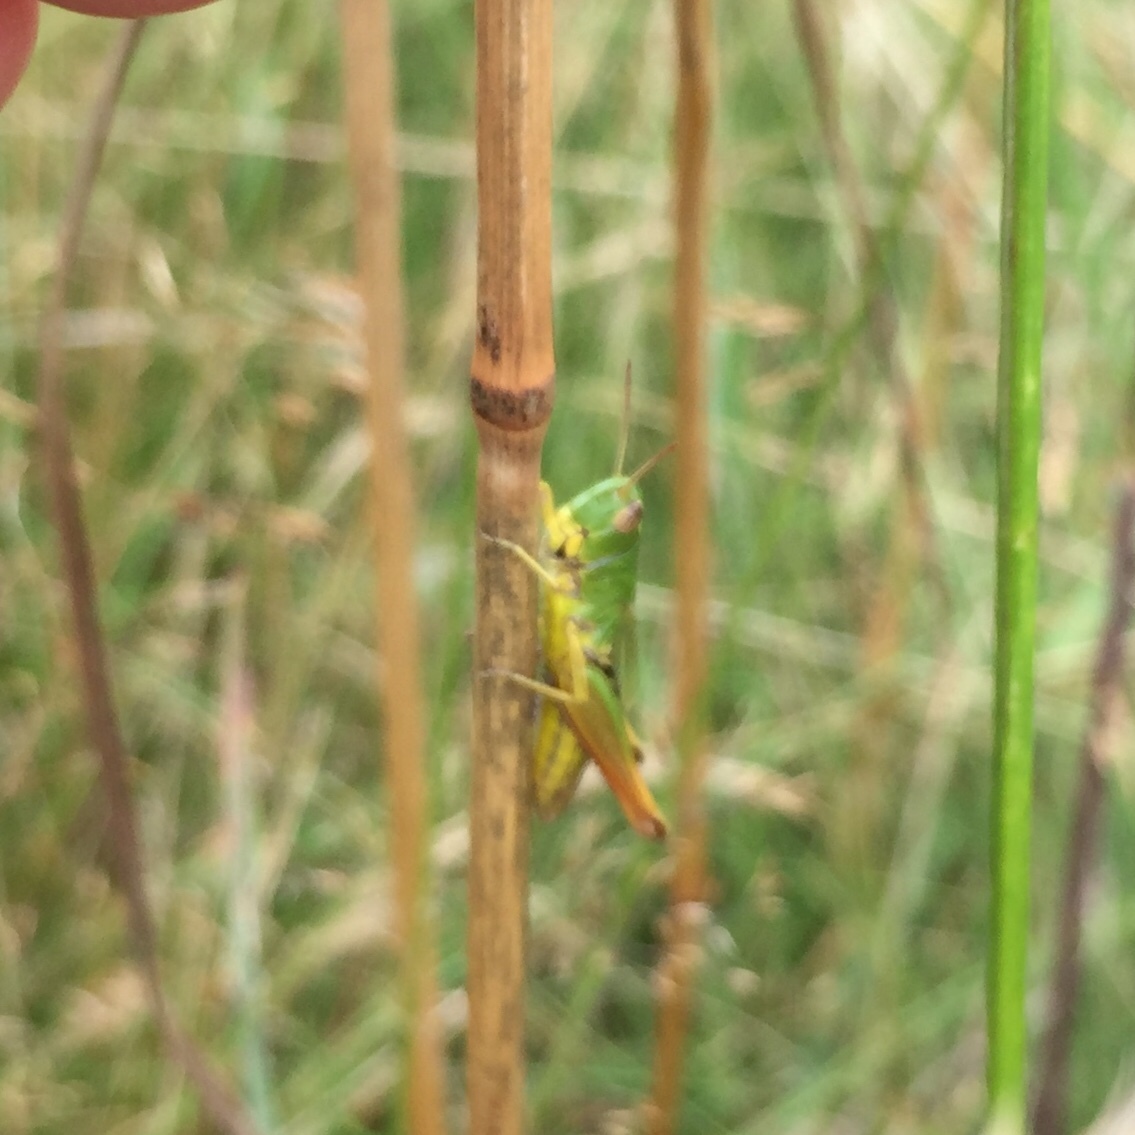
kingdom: Animalia
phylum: Arthropoda
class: Insecta
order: Orthoptera
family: Acrididae
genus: Pseudochorthippus
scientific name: Pseudochorthippus parallelus
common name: Meadow grasshopper
